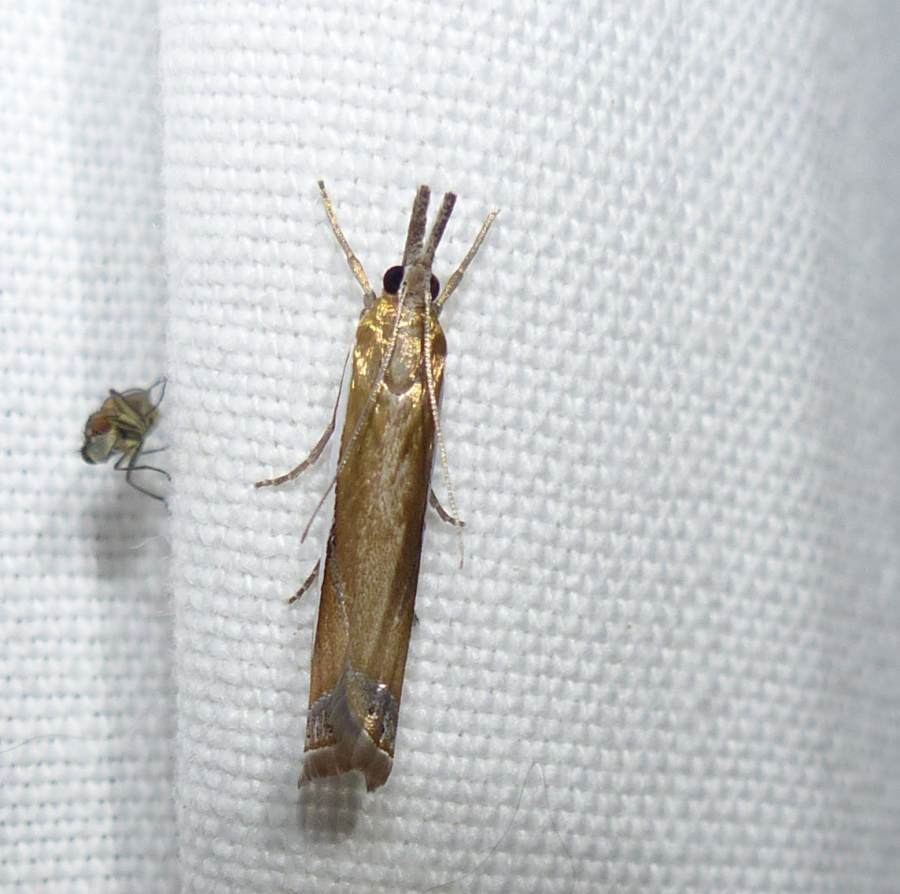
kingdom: Animalia
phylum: Arthropoda
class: Insecta
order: Lepidoptera
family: Crambidae
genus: Crambus
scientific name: Crambus praefectellus
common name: Common grass-veneer
